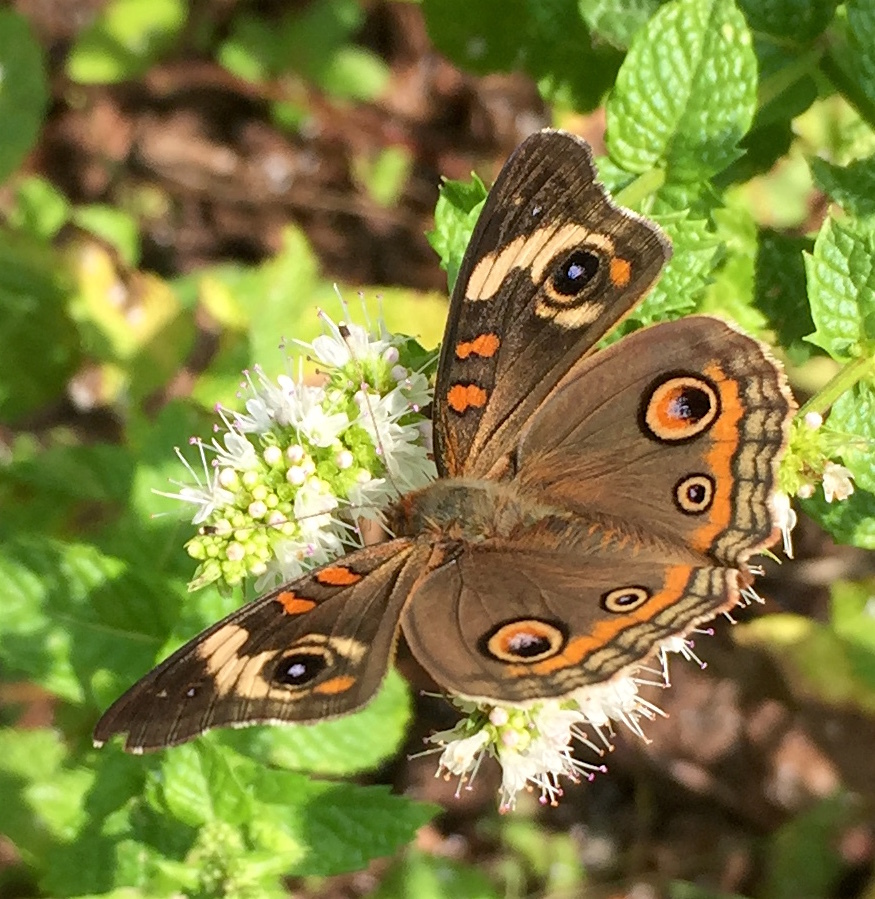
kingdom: Animalia
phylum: Arthropoda
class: Insecta
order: Lepidoptera
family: Nymphalidae
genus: Junonia
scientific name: Junonia coenia
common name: Common buckeye
